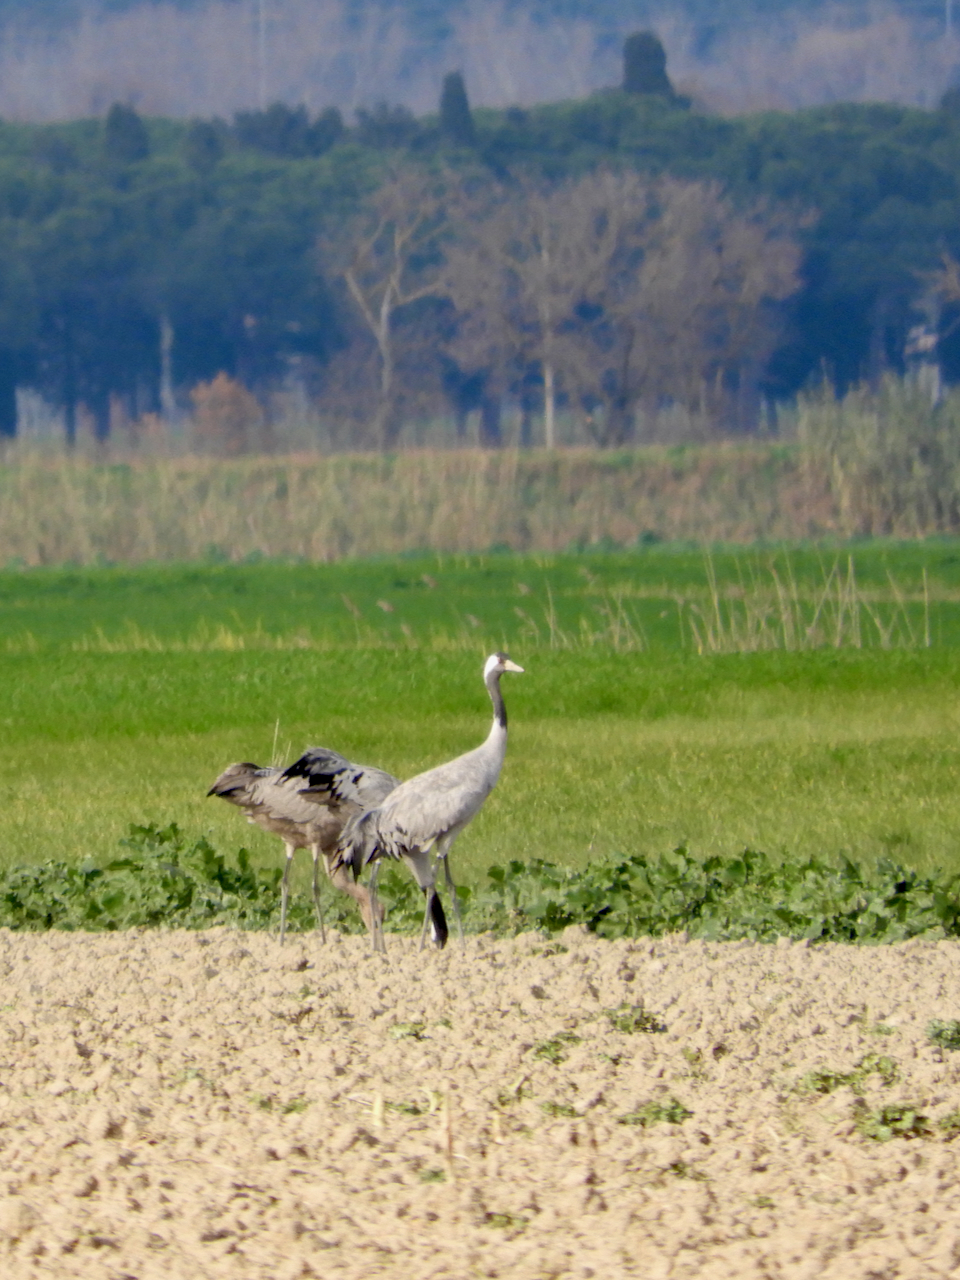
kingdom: Animalia
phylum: Chordata
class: Aves
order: Gruiformes
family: Gruidae
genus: Grus
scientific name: Grus grus
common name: Common crane
